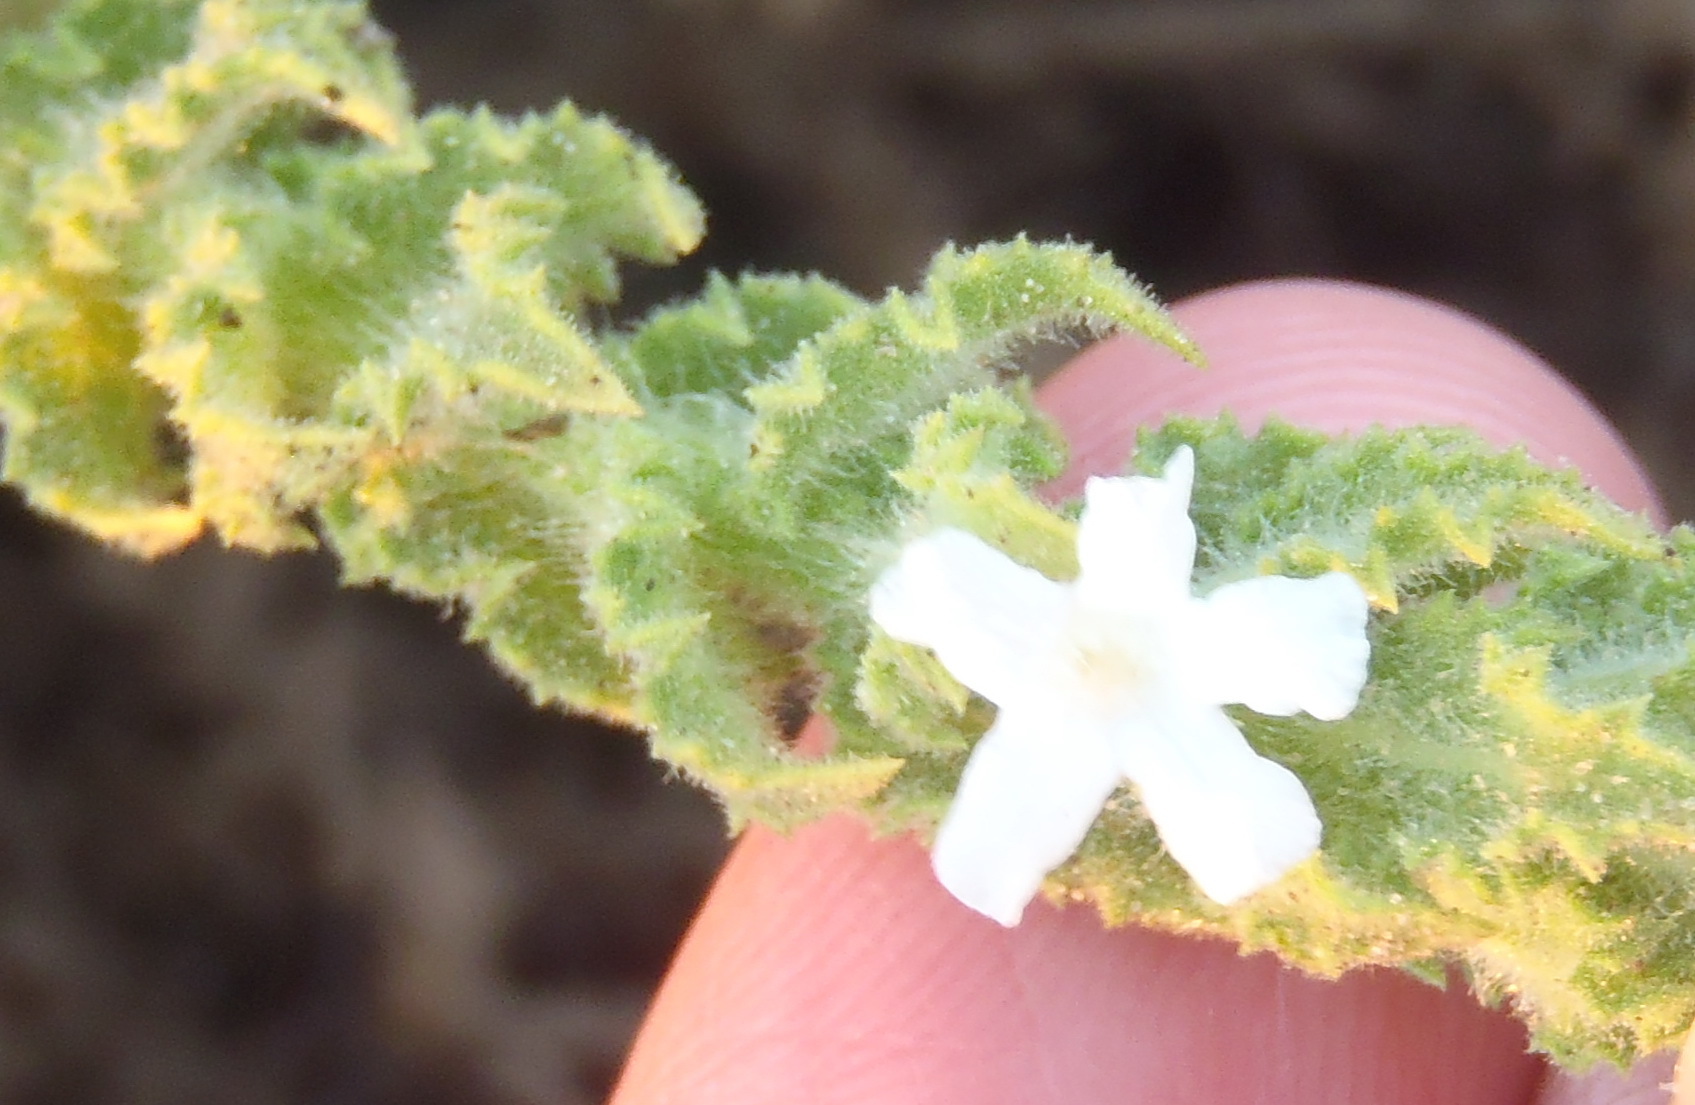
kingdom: Plantae
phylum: Tracheophyta
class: Magnoliopsida
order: Lamiales
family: Scrophulariaceae
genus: Oftia
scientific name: Oftia africana
